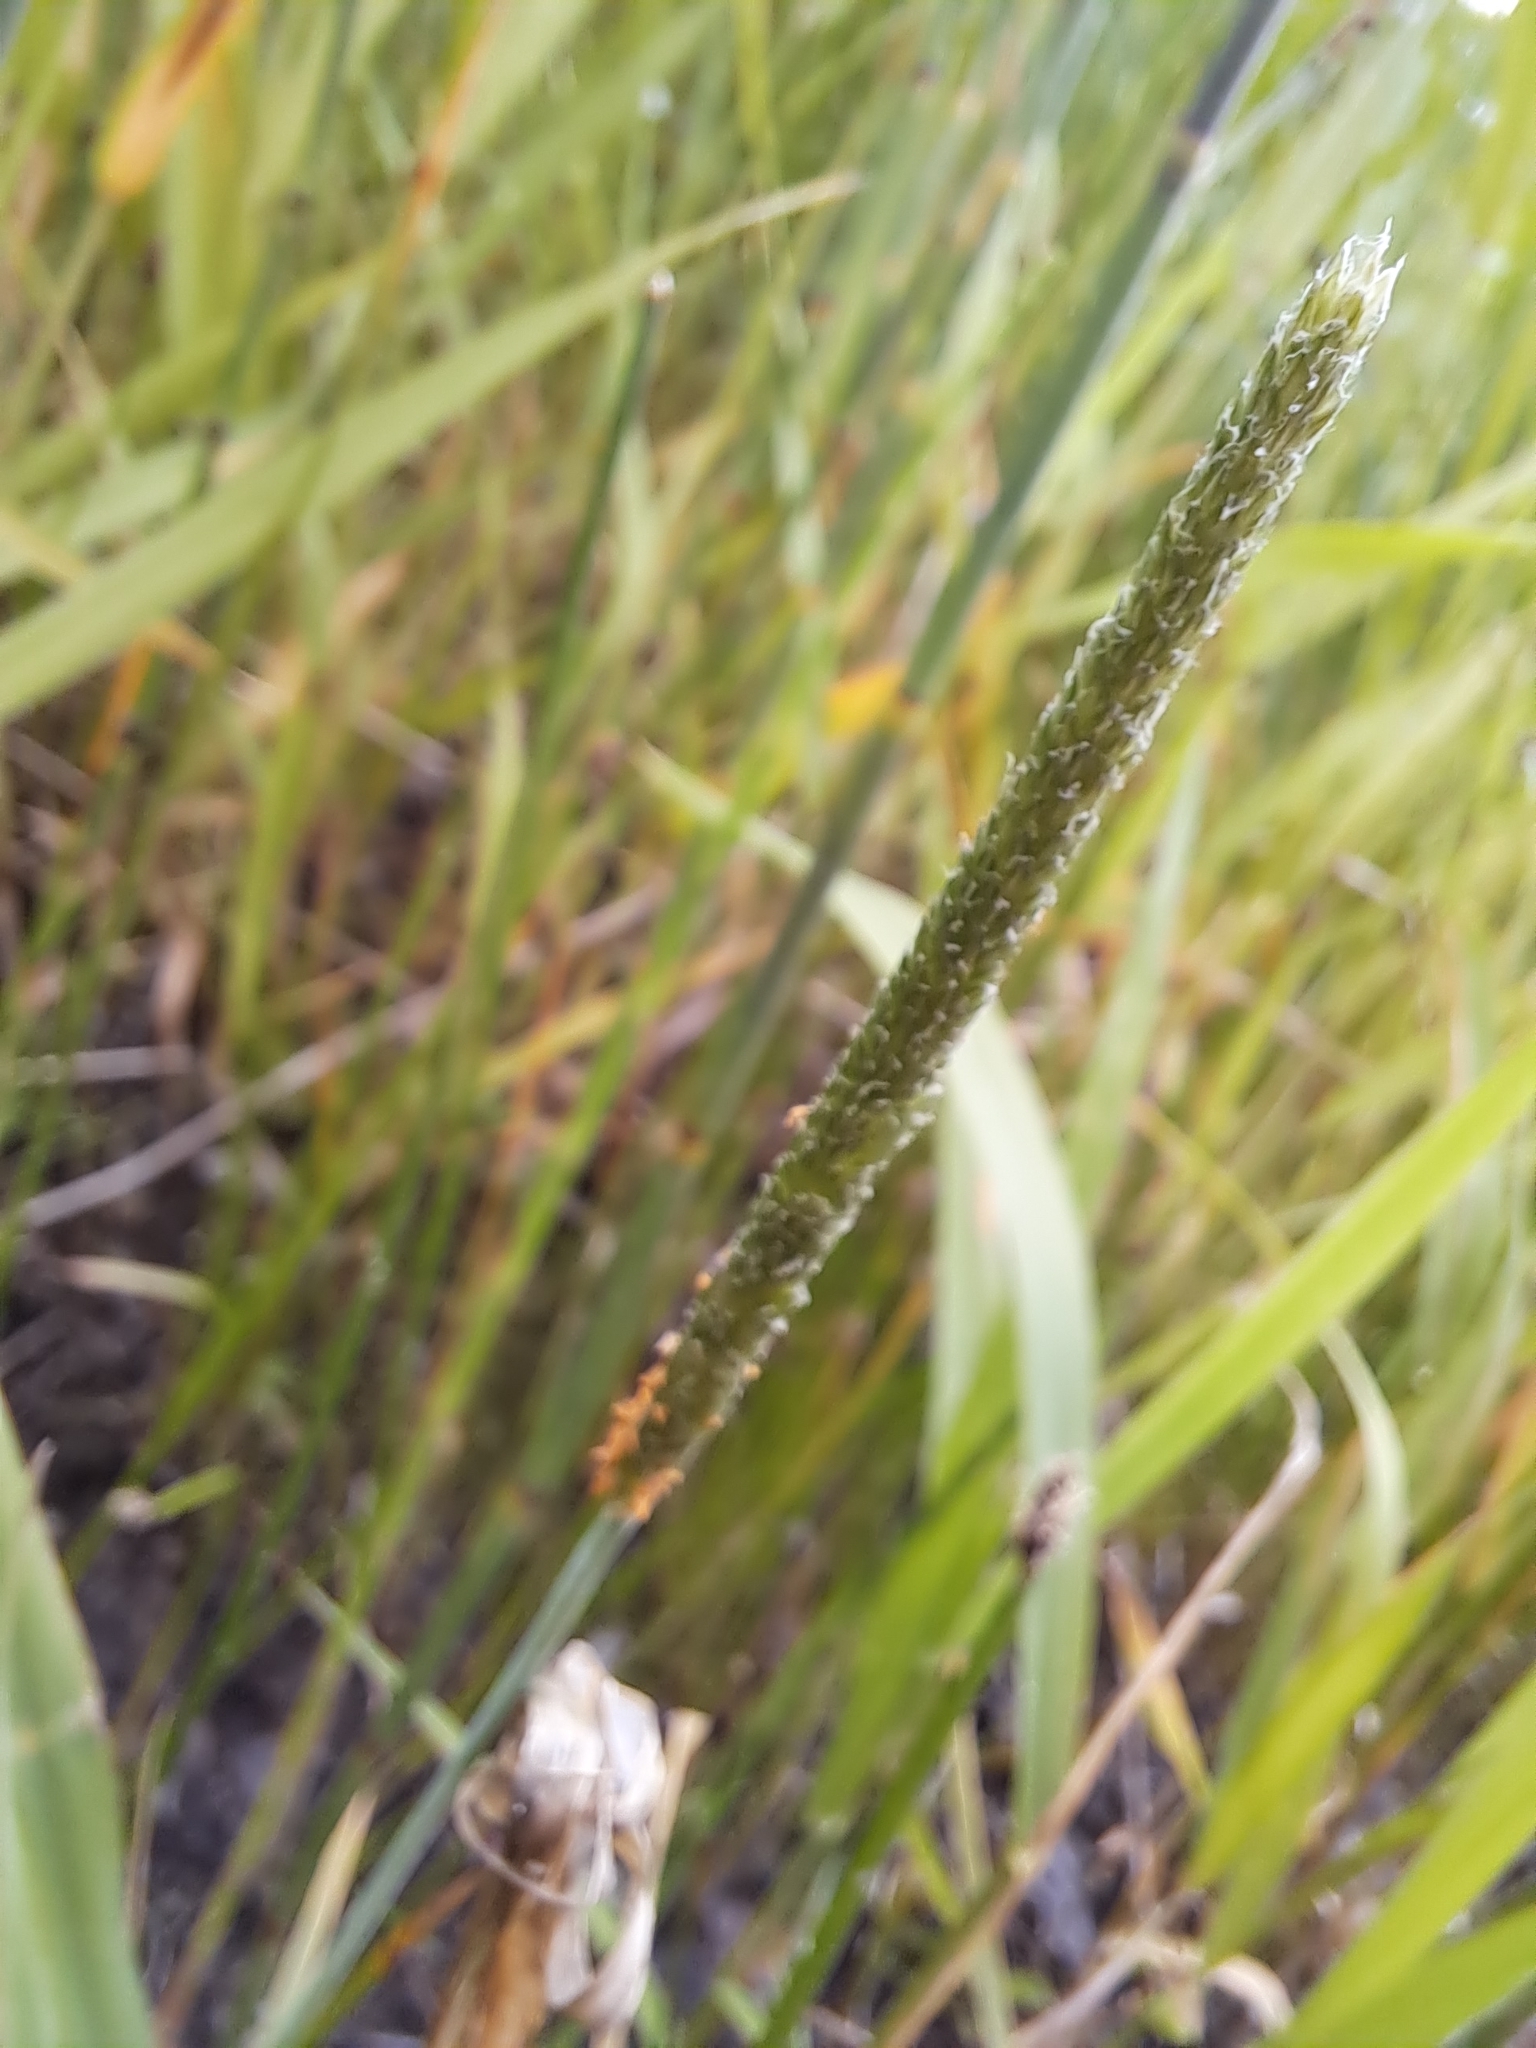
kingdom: Plantae
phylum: Tracheophyta
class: Liliopsida
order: Poales
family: Poaceae
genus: Alopecurus
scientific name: Alopecurus aequalis
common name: Orange foxtail
